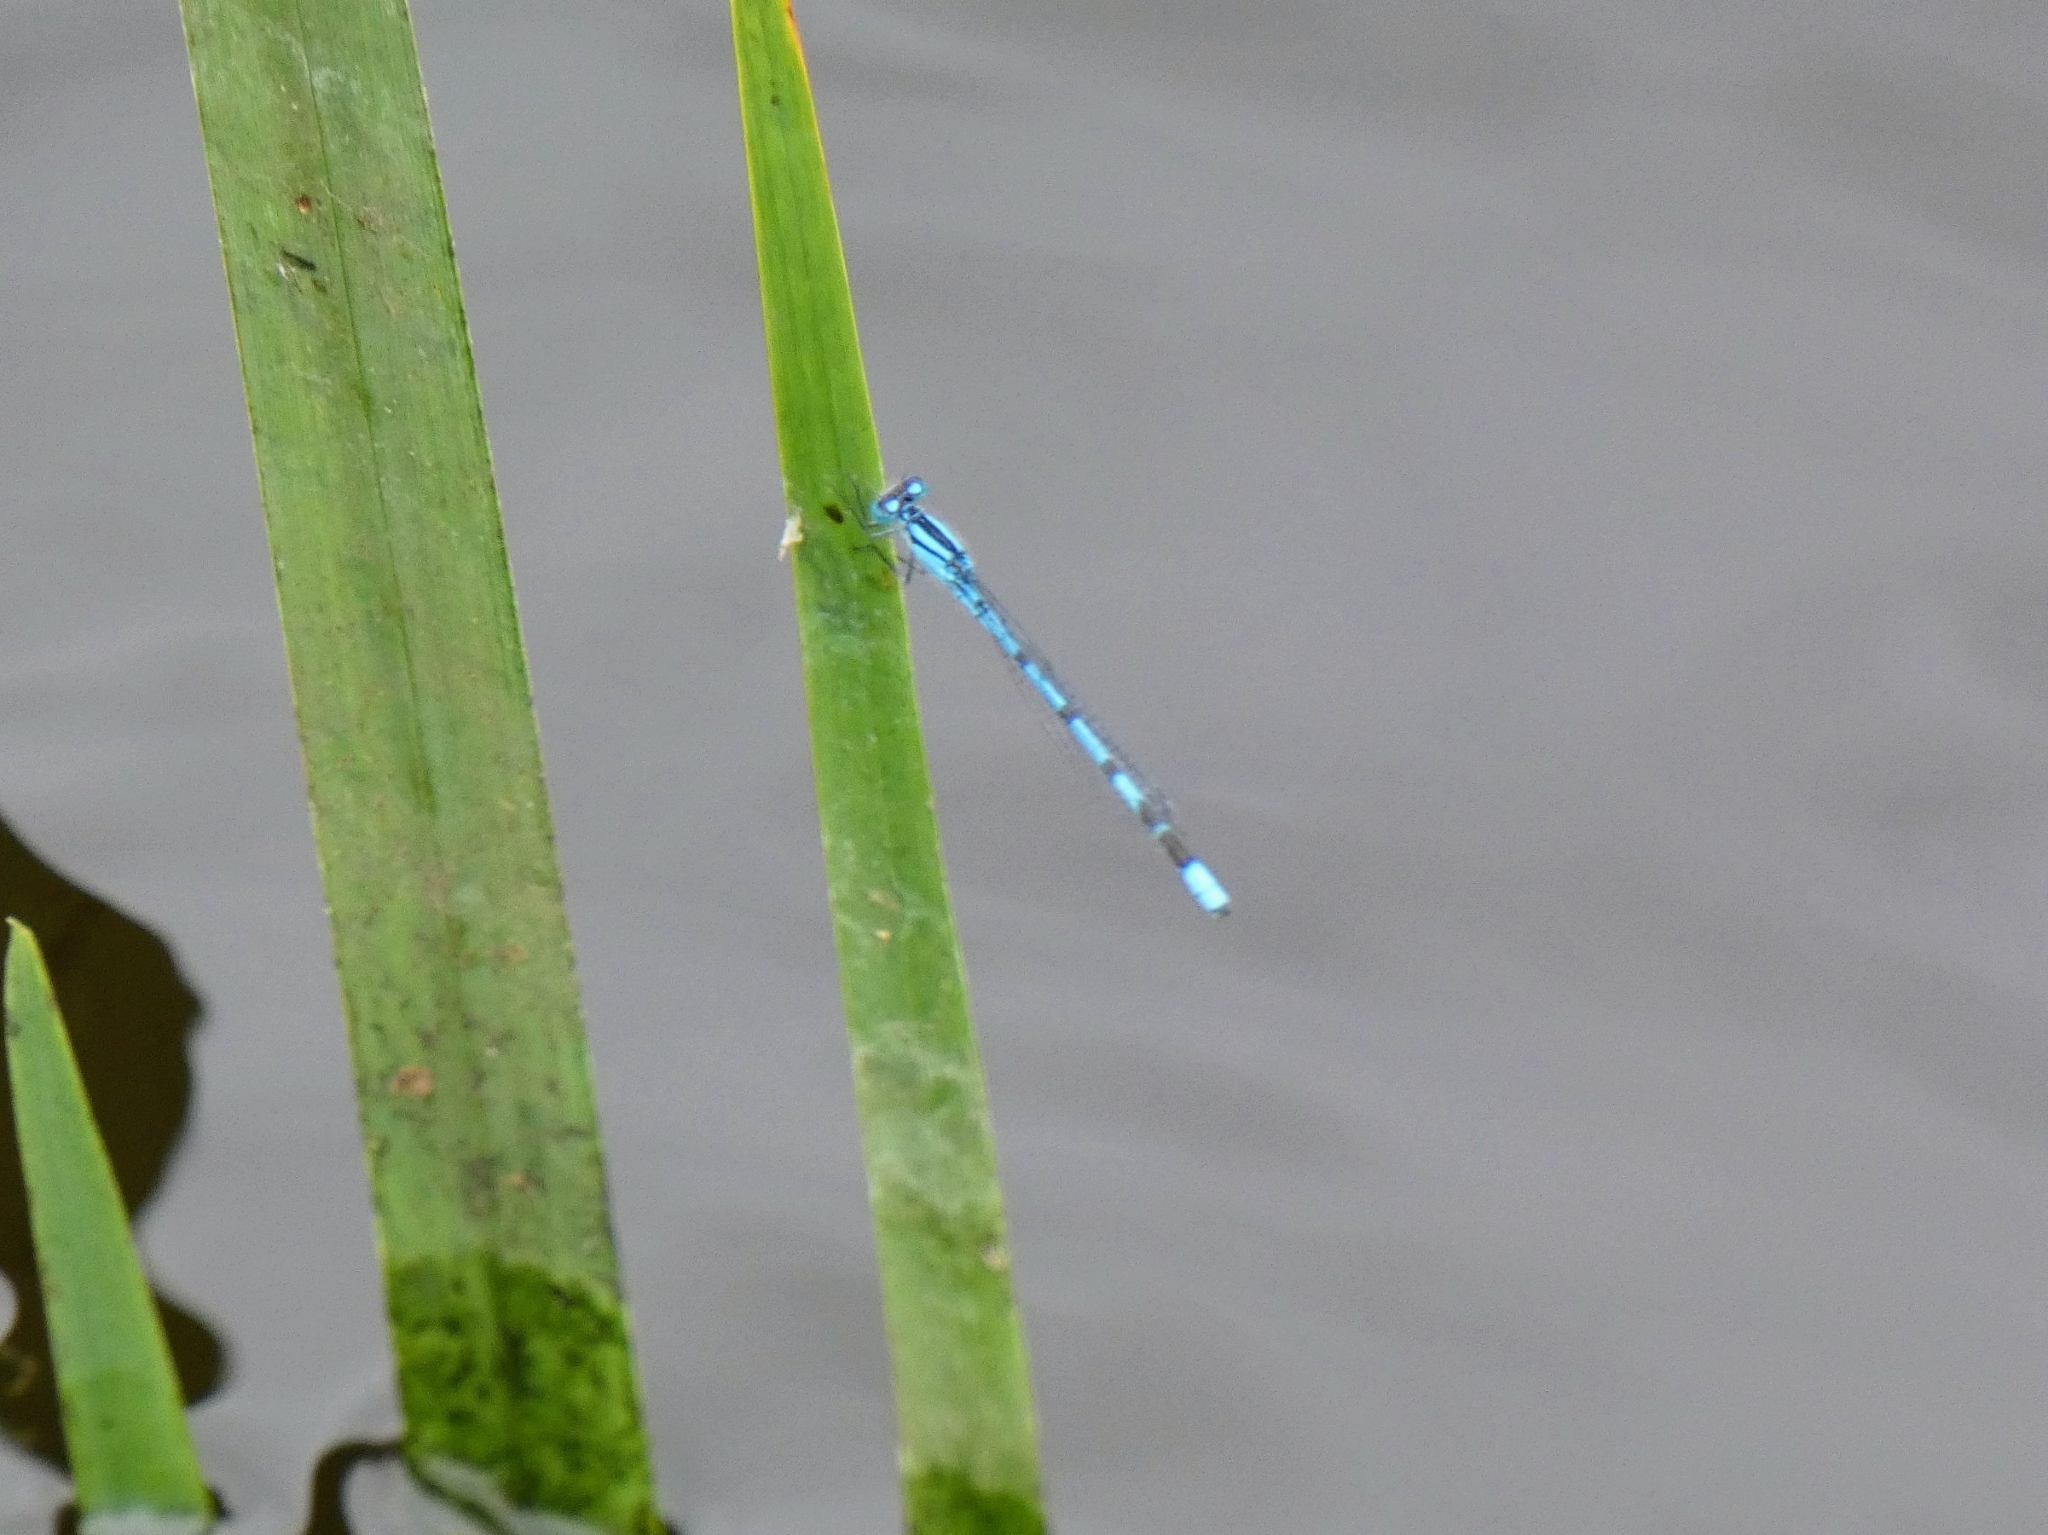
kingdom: Animalia
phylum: Arthropoda
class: Insecta
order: Odonata
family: Coenagrionidae
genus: Enallagma
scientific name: Enallagma cyathigerum
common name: Common blue damselfly
